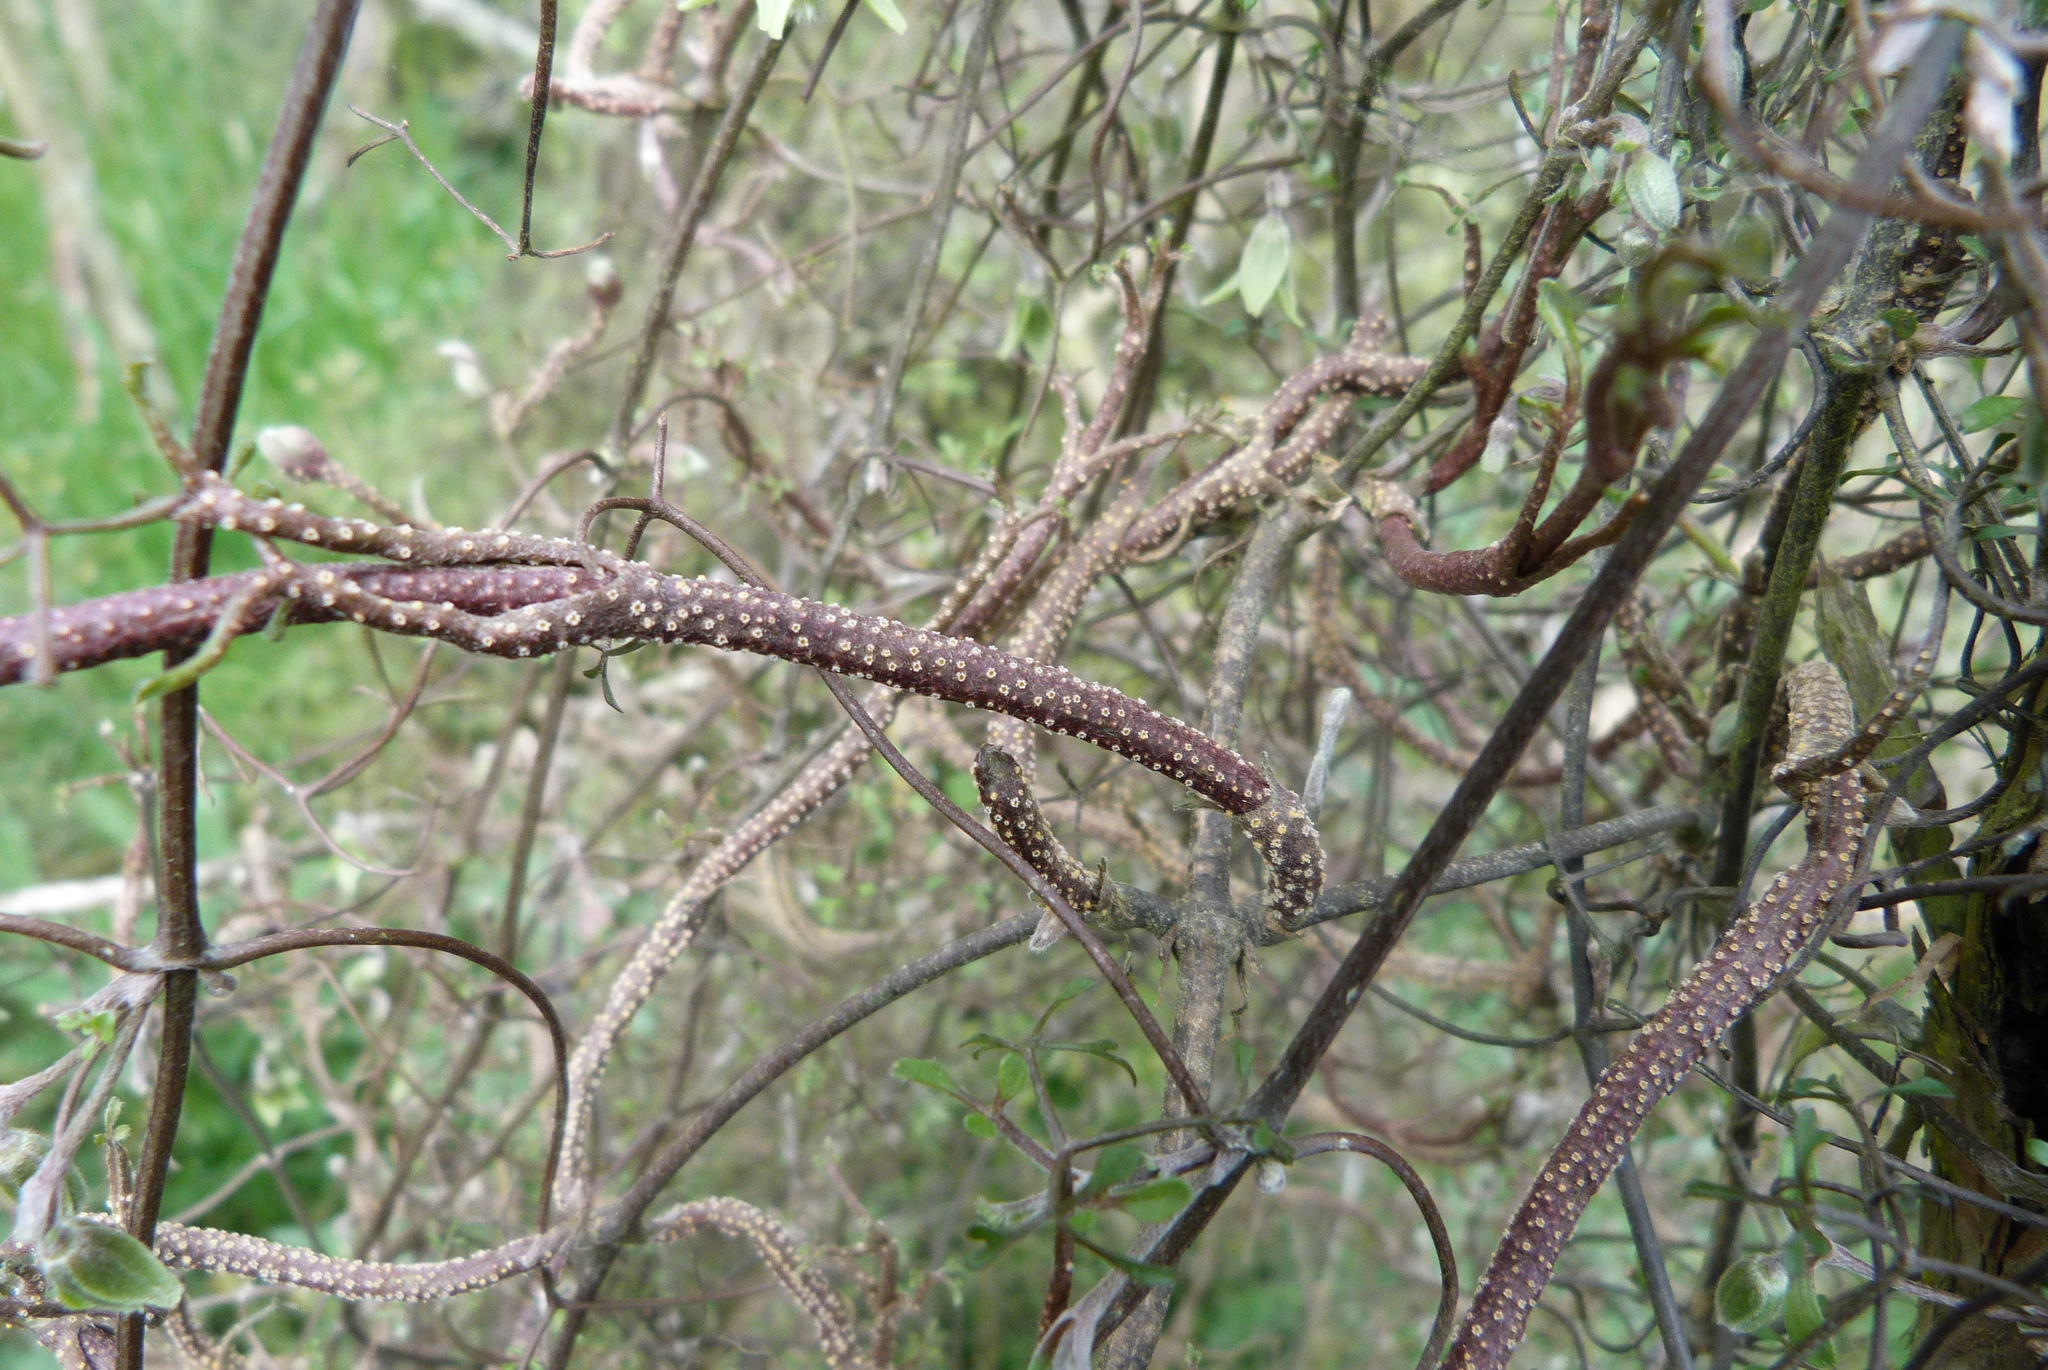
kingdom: Plantae
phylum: Tracheophyta
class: Magnoliopsida
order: Ranunculales
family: Ranunculaceae
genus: Clematis
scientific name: Clematis marata
